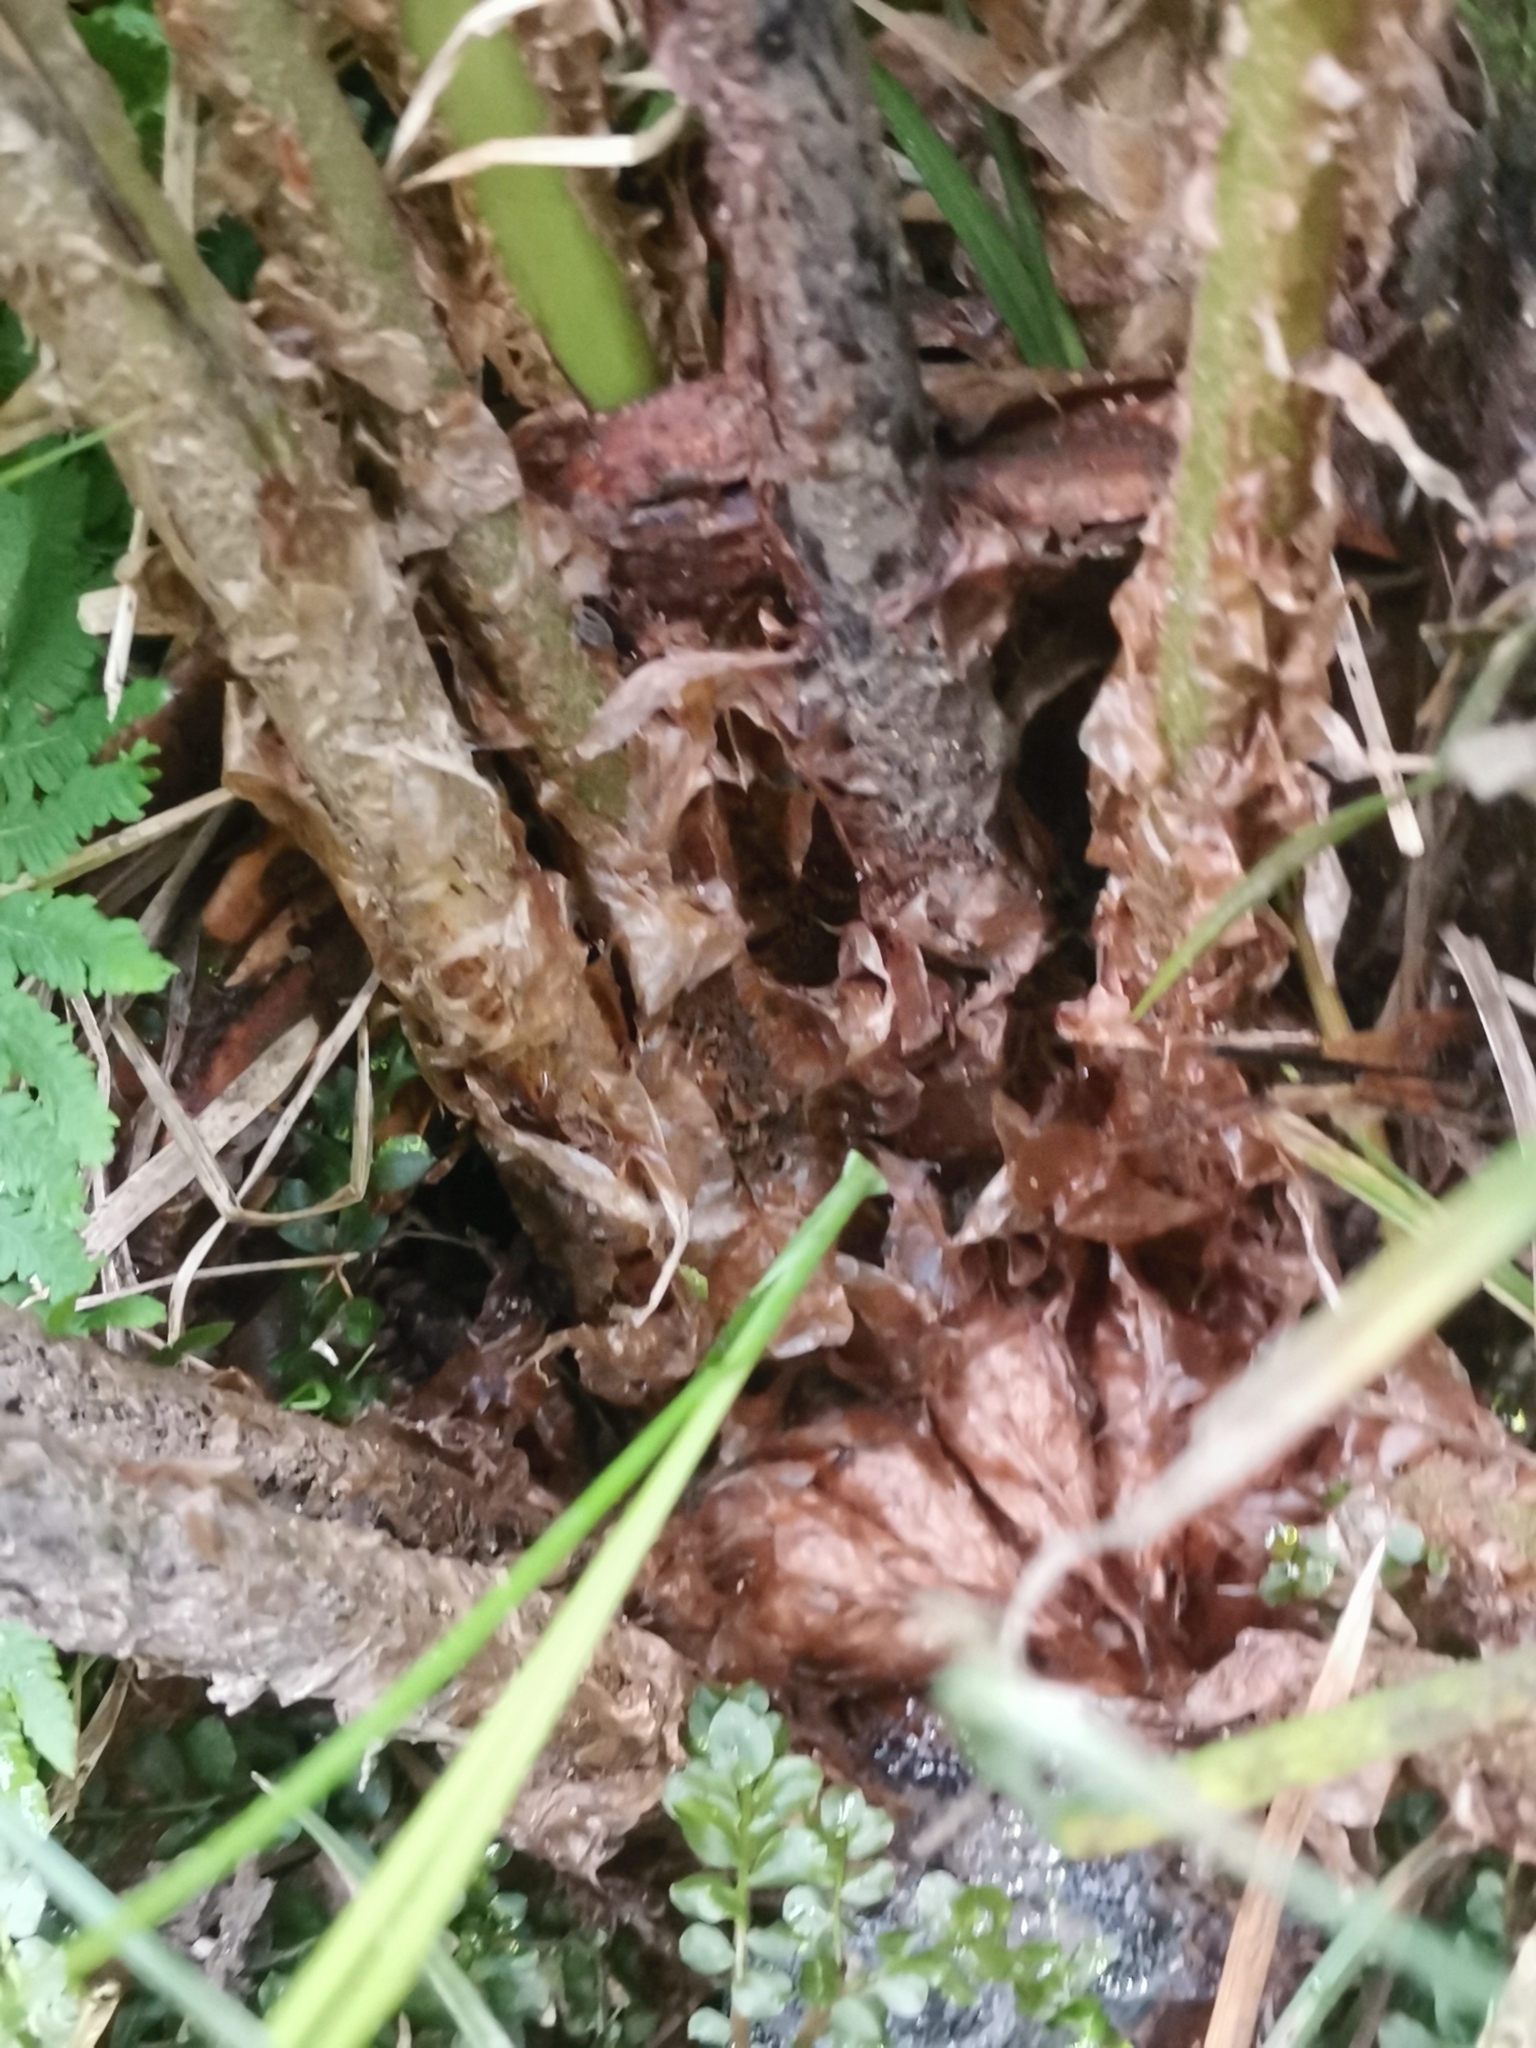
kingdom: Plantae
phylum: Tracheophyta
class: Polypodiopsida
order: Polypodiales
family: Dryopteridaceae
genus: Dryopteris
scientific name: Dryopteris filix-mas
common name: Male fern
